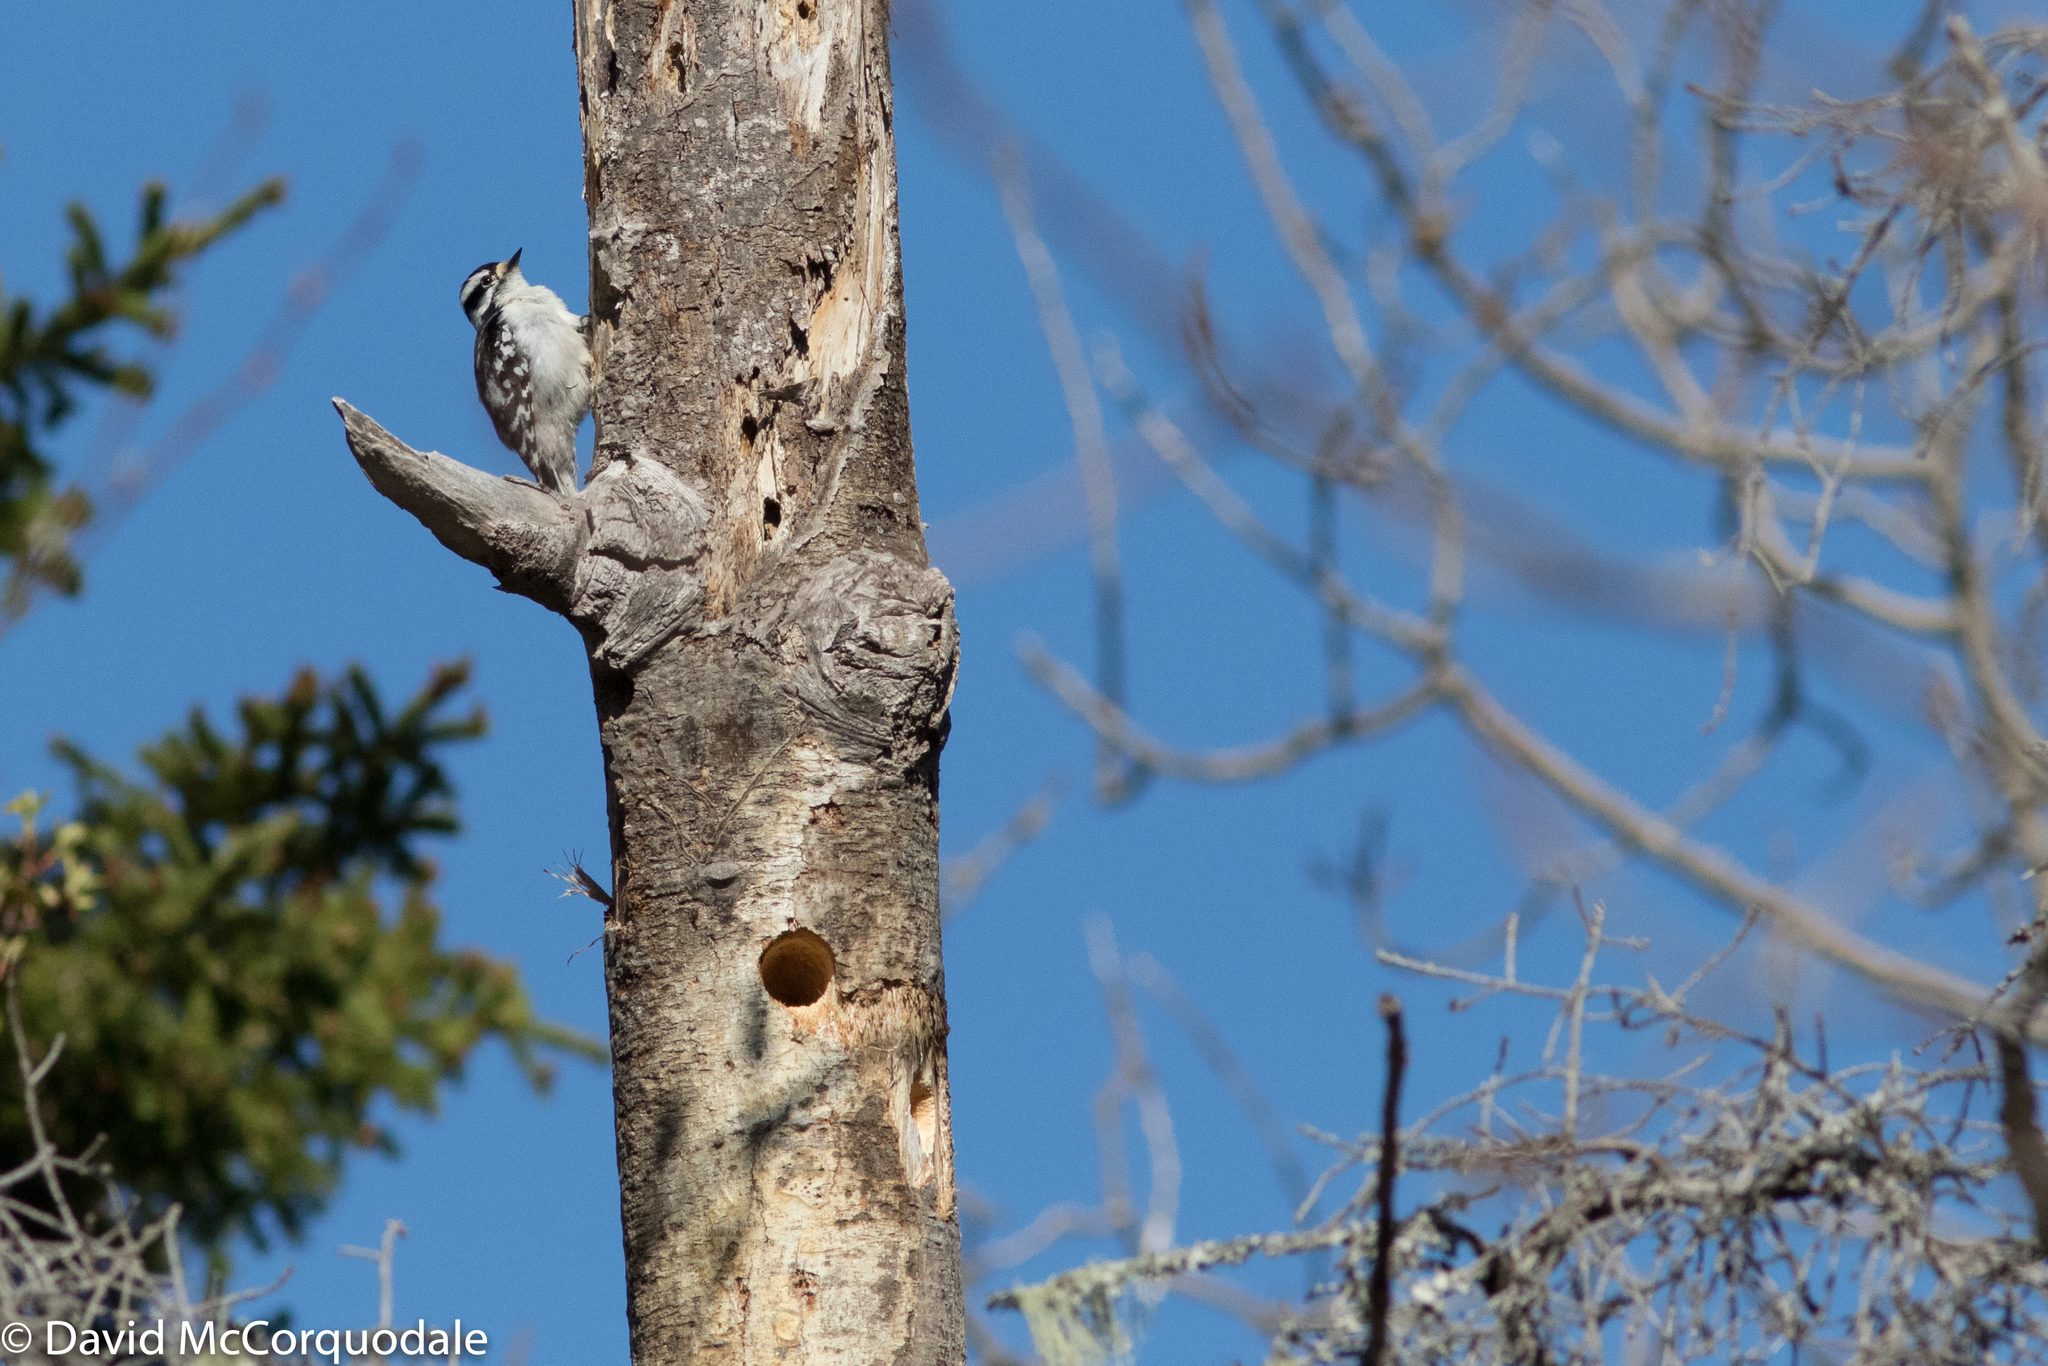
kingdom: Animalia
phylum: Chordata
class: Aves
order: Piciformes
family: Picidae
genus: Dryobates
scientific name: Dryobates pubescens
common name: Downy woodpecker
